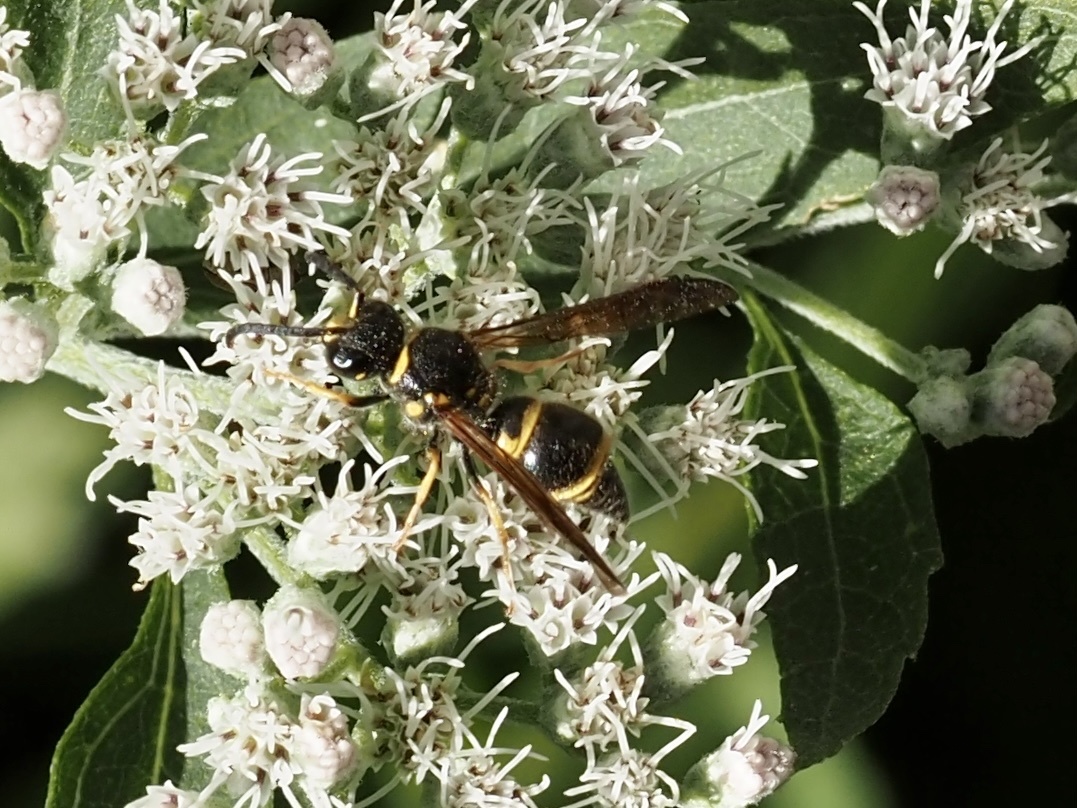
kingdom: Animalia
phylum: Arthropoda
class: Insecta
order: Hymenoptera
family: Vespidae
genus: Ancistrocerus
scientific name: Ancistrocerus campestris
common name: Smiling mason wasp
